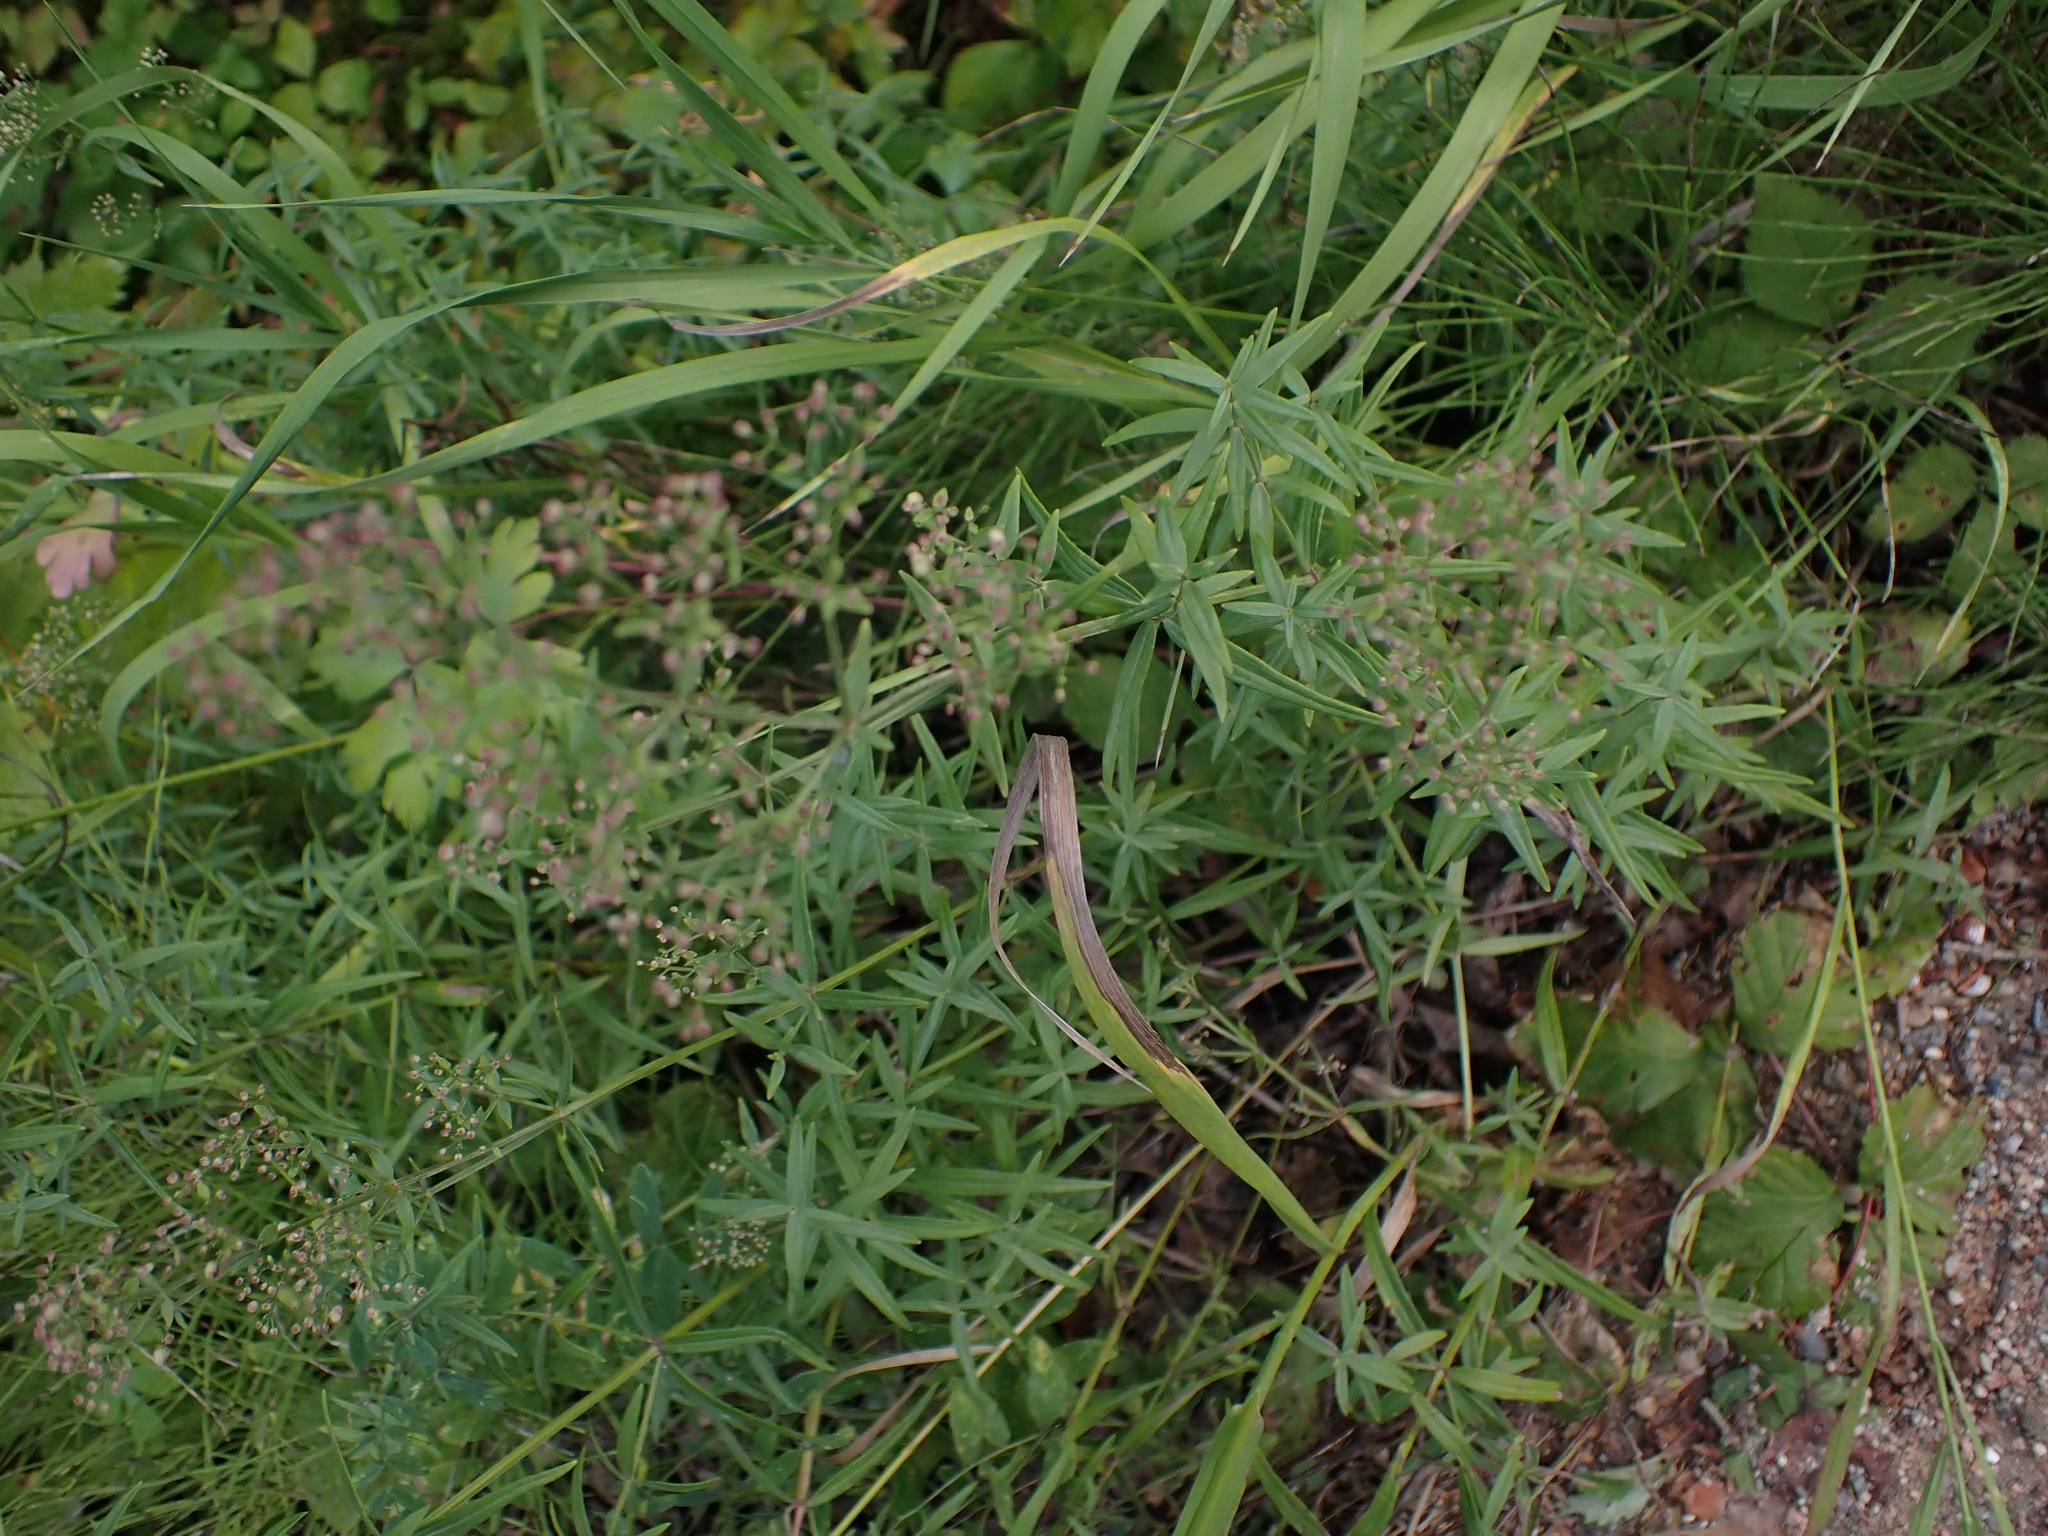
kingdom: Plantae
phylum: Tracheophyta
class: Magnoliopsida
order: Gentianales
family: Rubiaceae
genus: Galium
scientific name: Galium boreale
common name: Northern bedstraw
